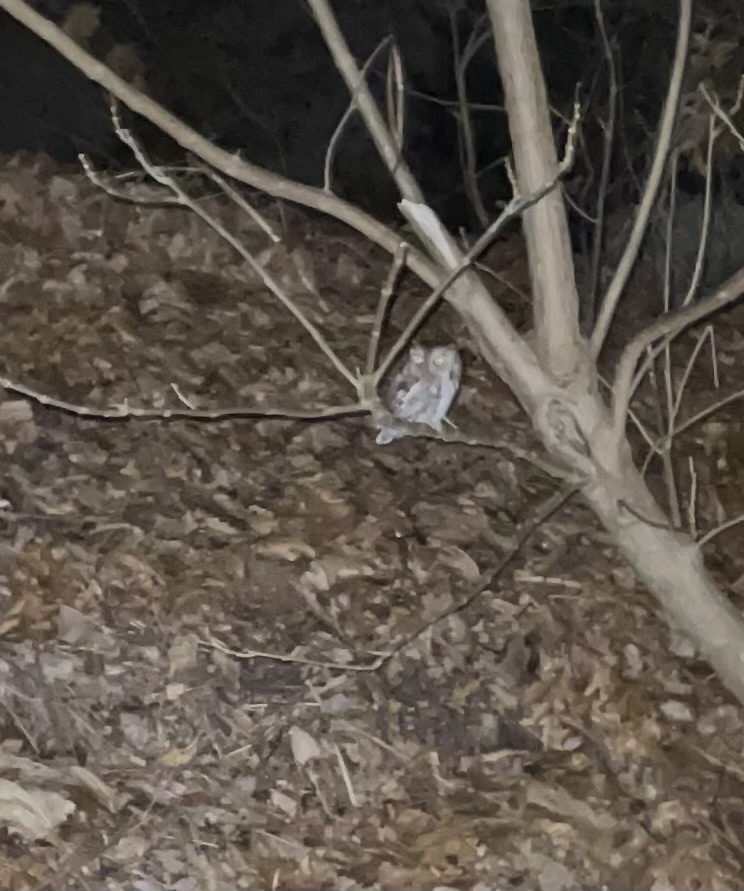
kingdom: Animalia
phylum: Chordata
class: Aves
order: Strigiformes
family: Strigidae
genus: Megascops
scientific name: Megascops asio
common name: Eastern screech-owl
